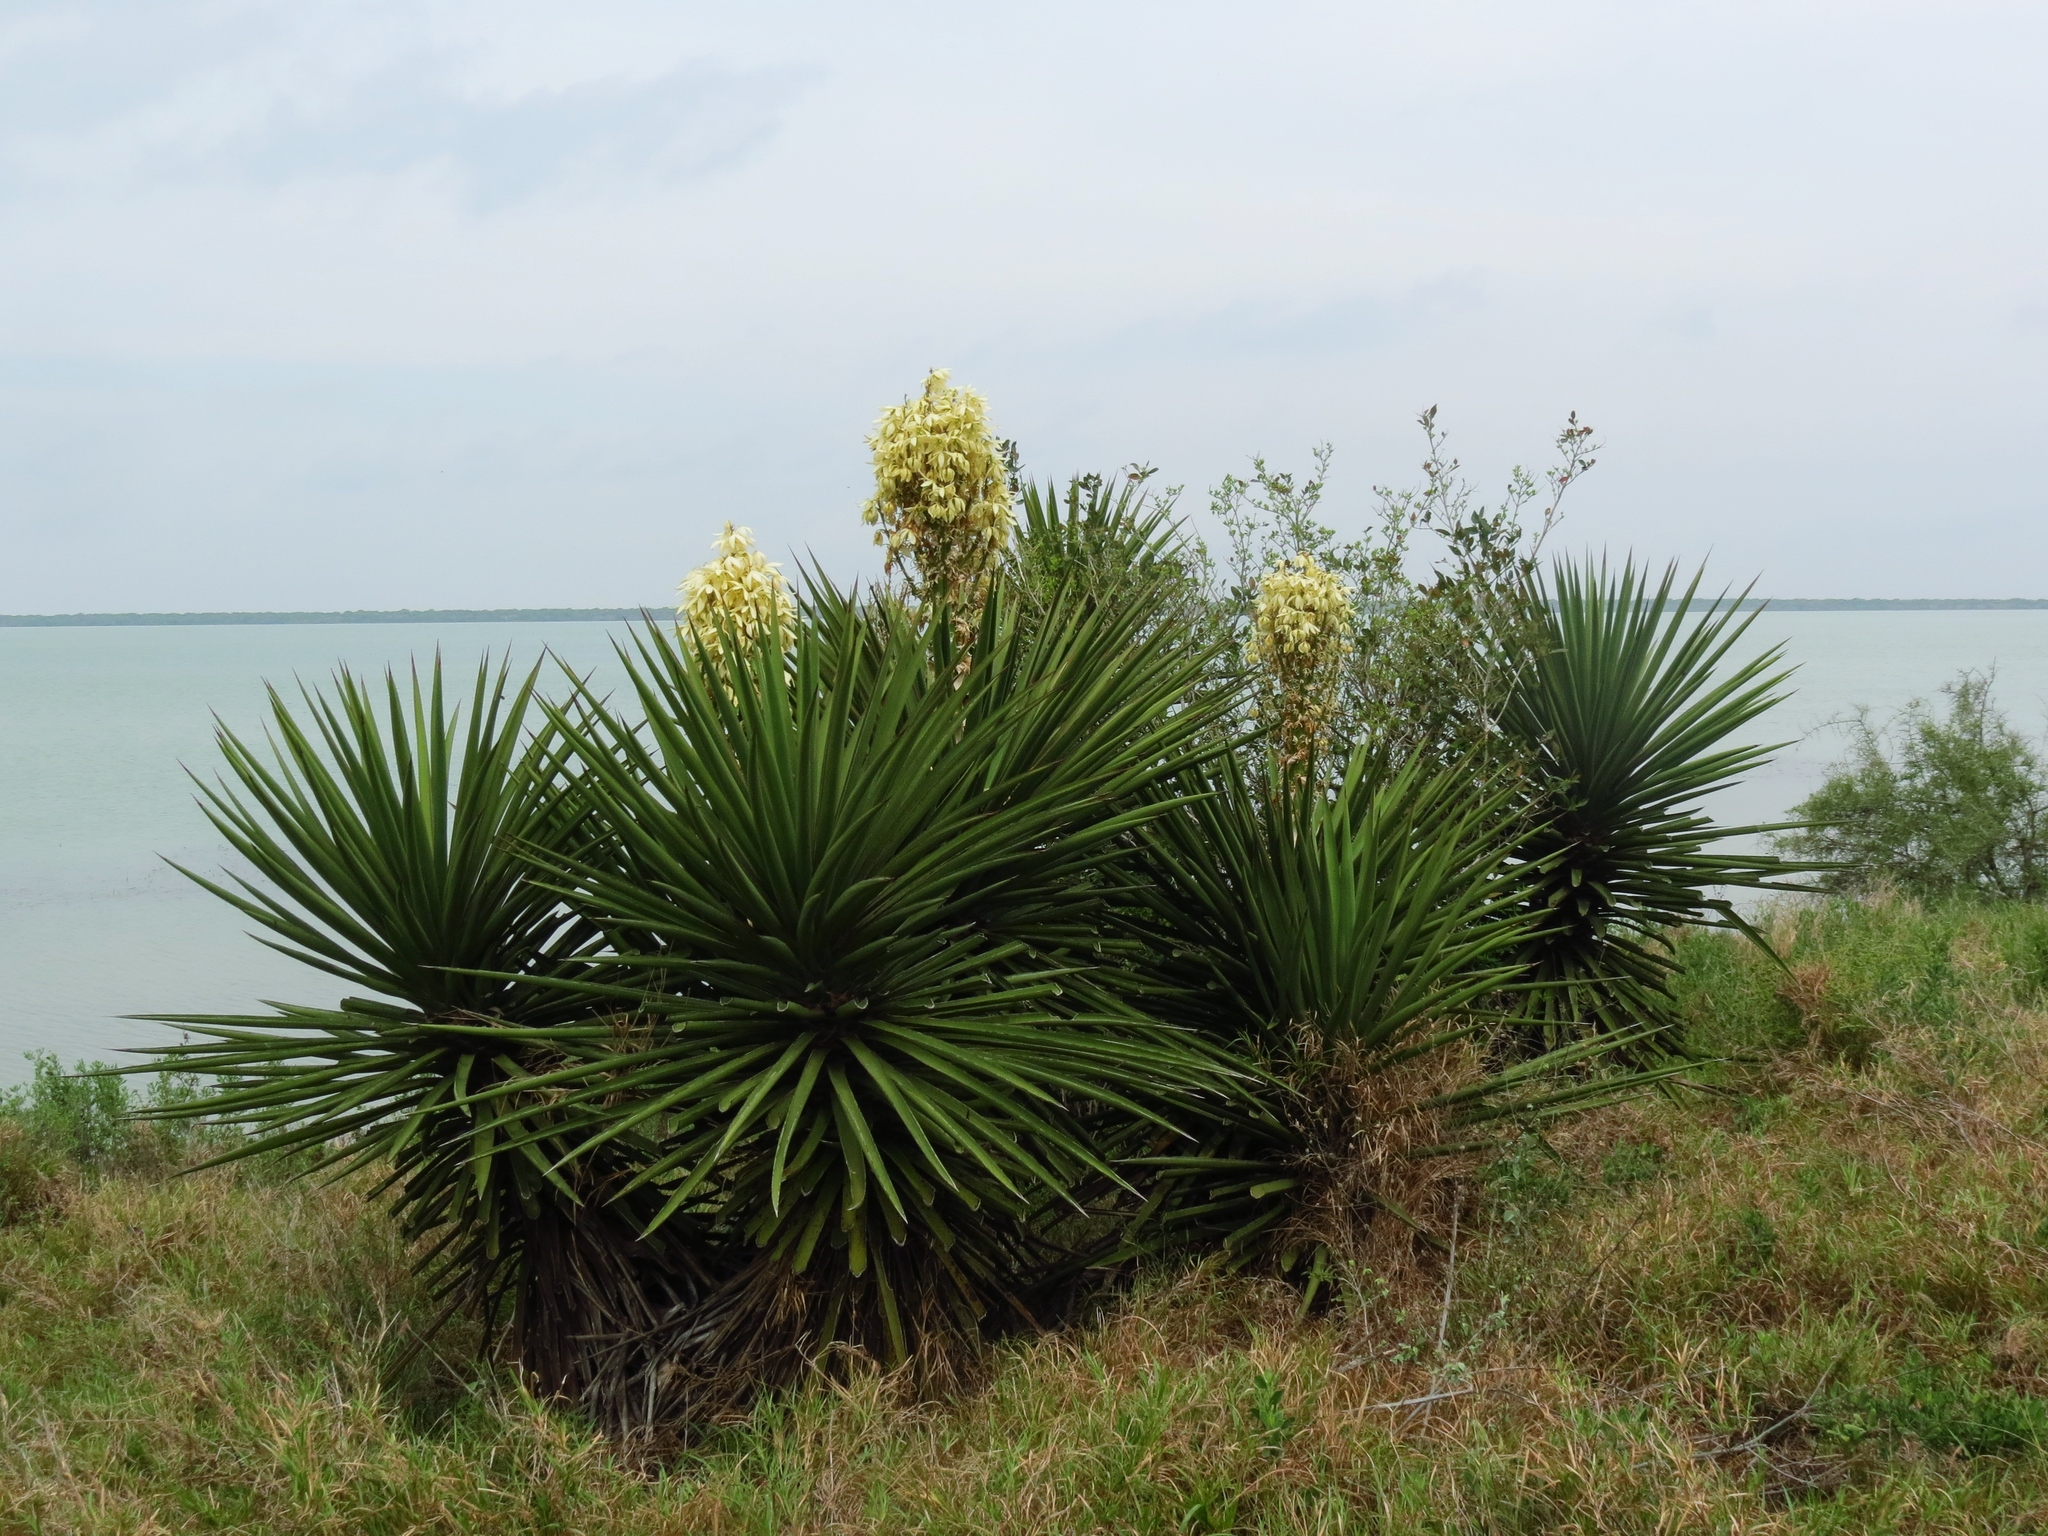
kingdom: Plantae
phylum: Tracheophyta
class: Liliopsida
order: Asparagales
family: Asparagaceae
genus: Yucca
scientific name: Yucca treculiana
